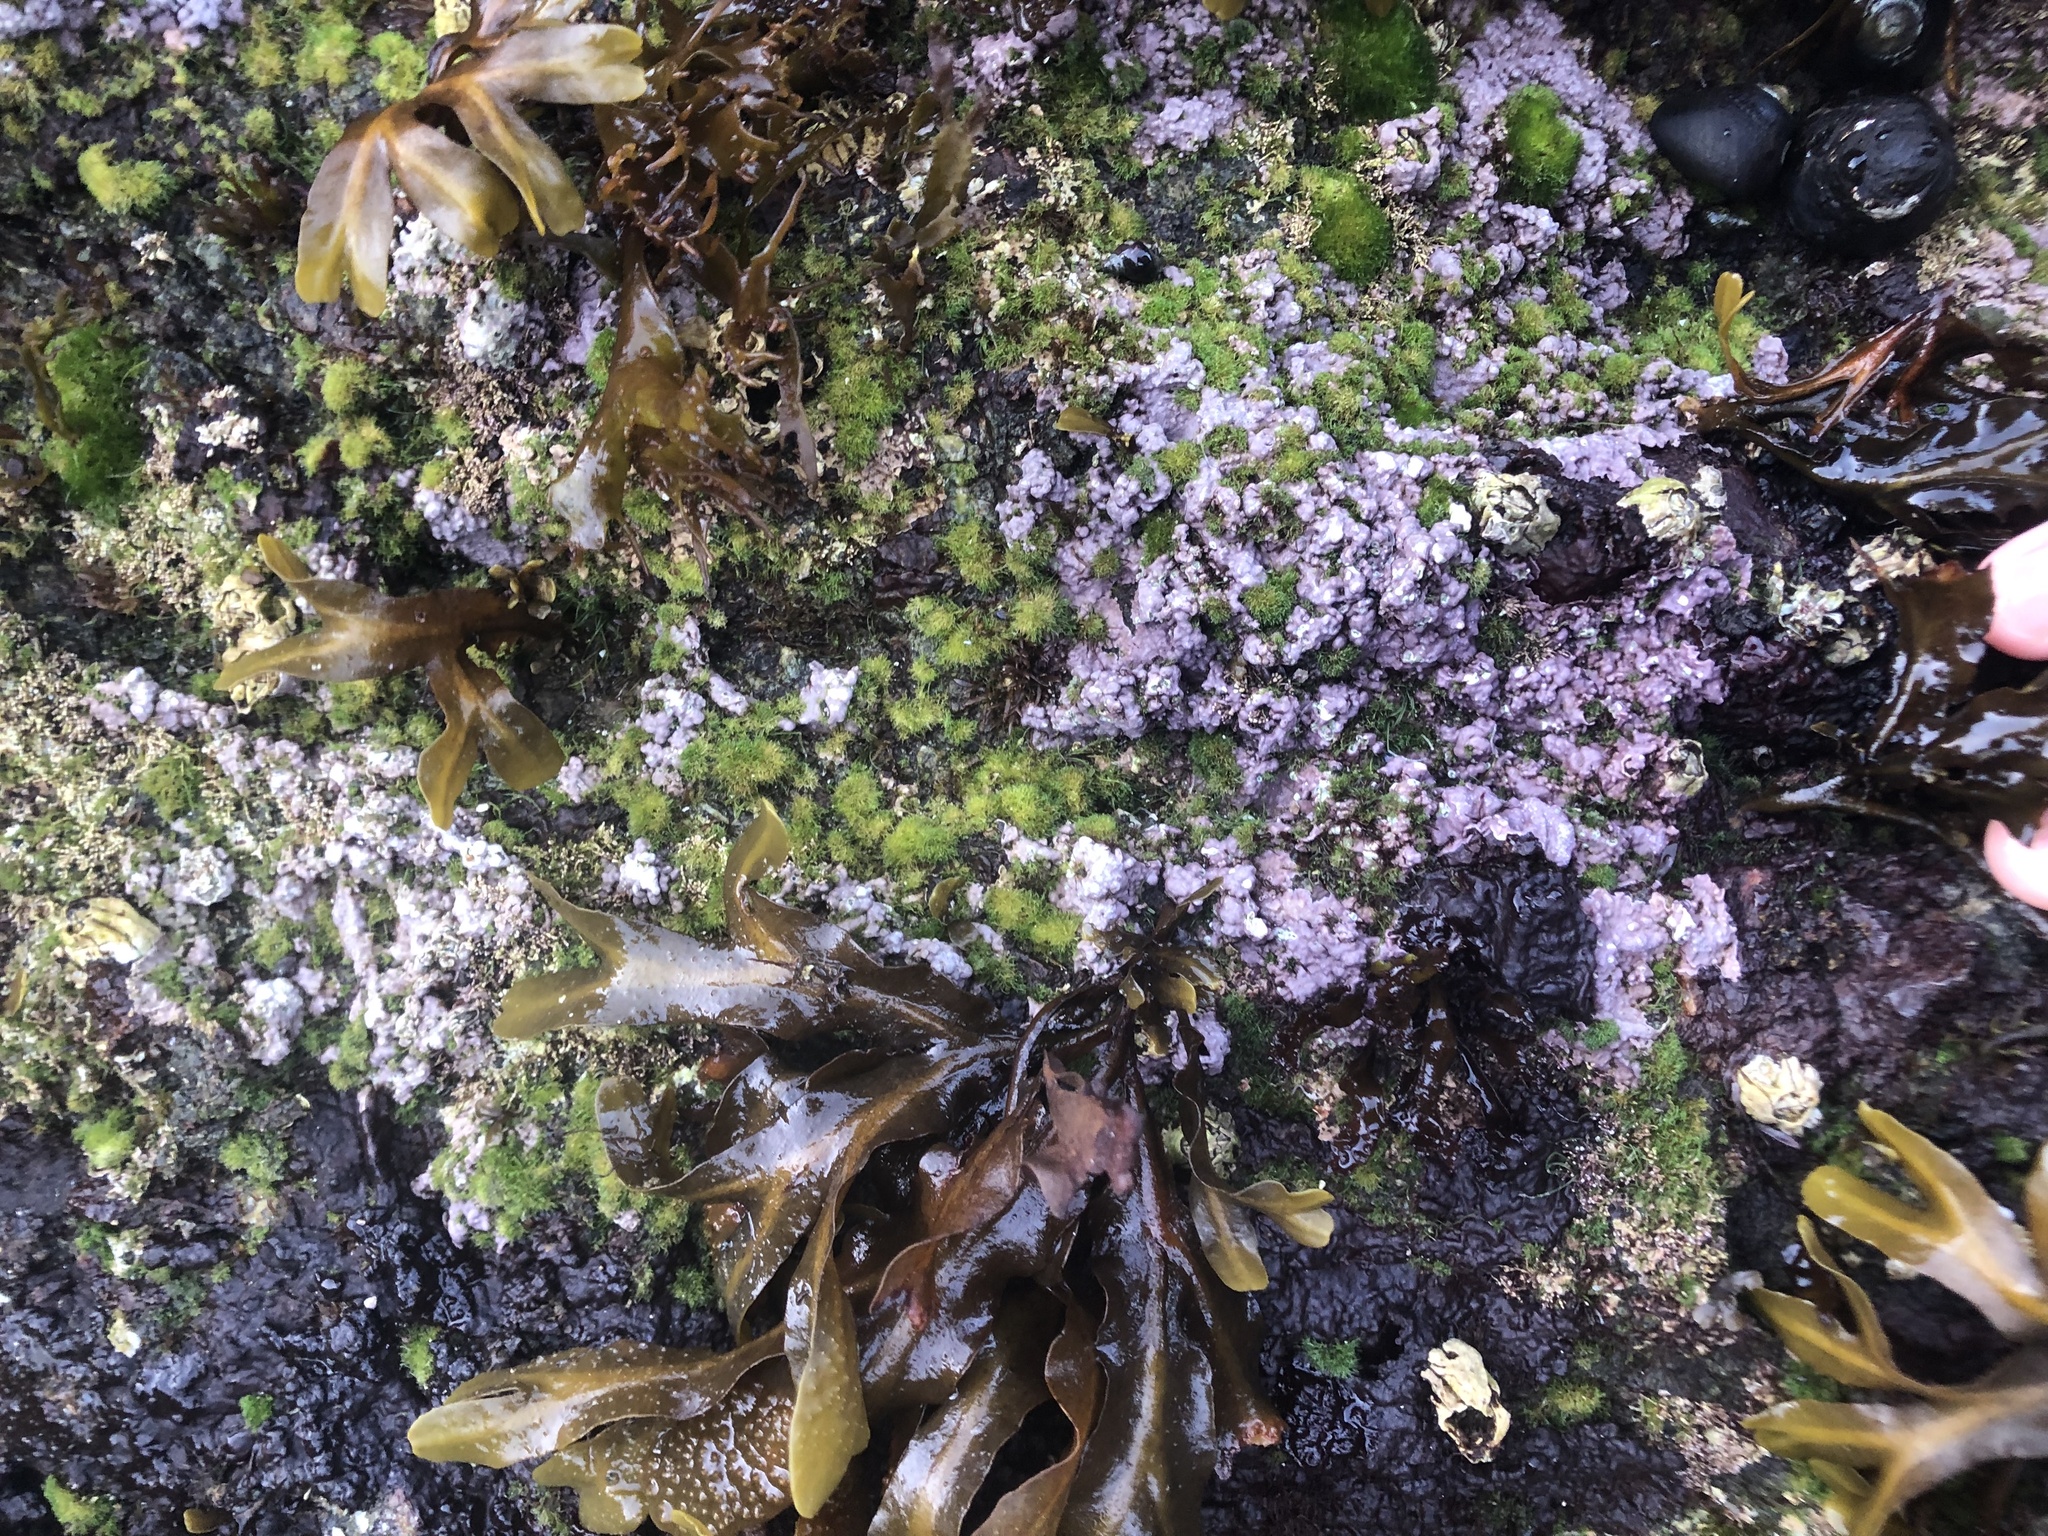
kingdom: Plantae
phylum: Rhodophyta
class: Florideophyceae
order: Corallinales
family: Corallinaceae
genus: Chamberlainium
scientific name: Chamberlainium tumidum
